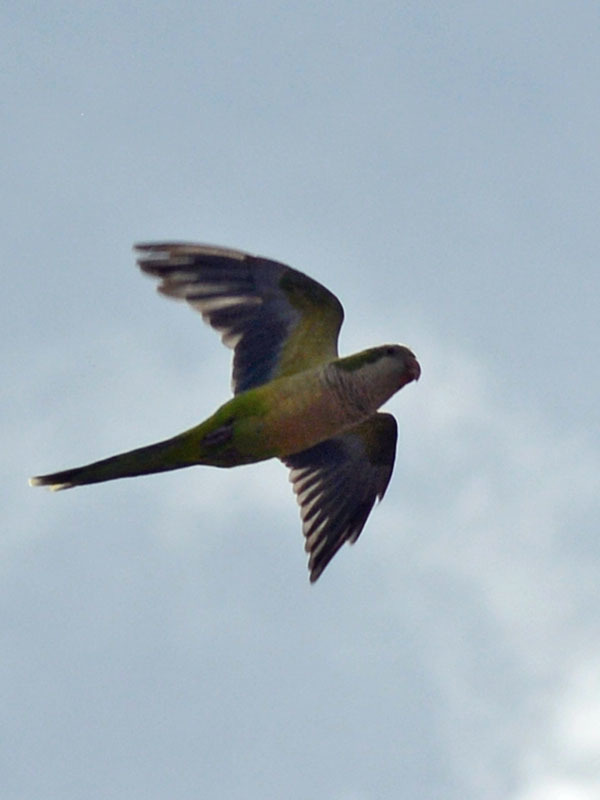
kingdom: Animalia
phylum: Chordata
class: Aves
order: Psittaciformes
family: Psittacidae
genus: Myiopsitta
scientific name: Myiopsitta monachus
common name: Monk parakeet
